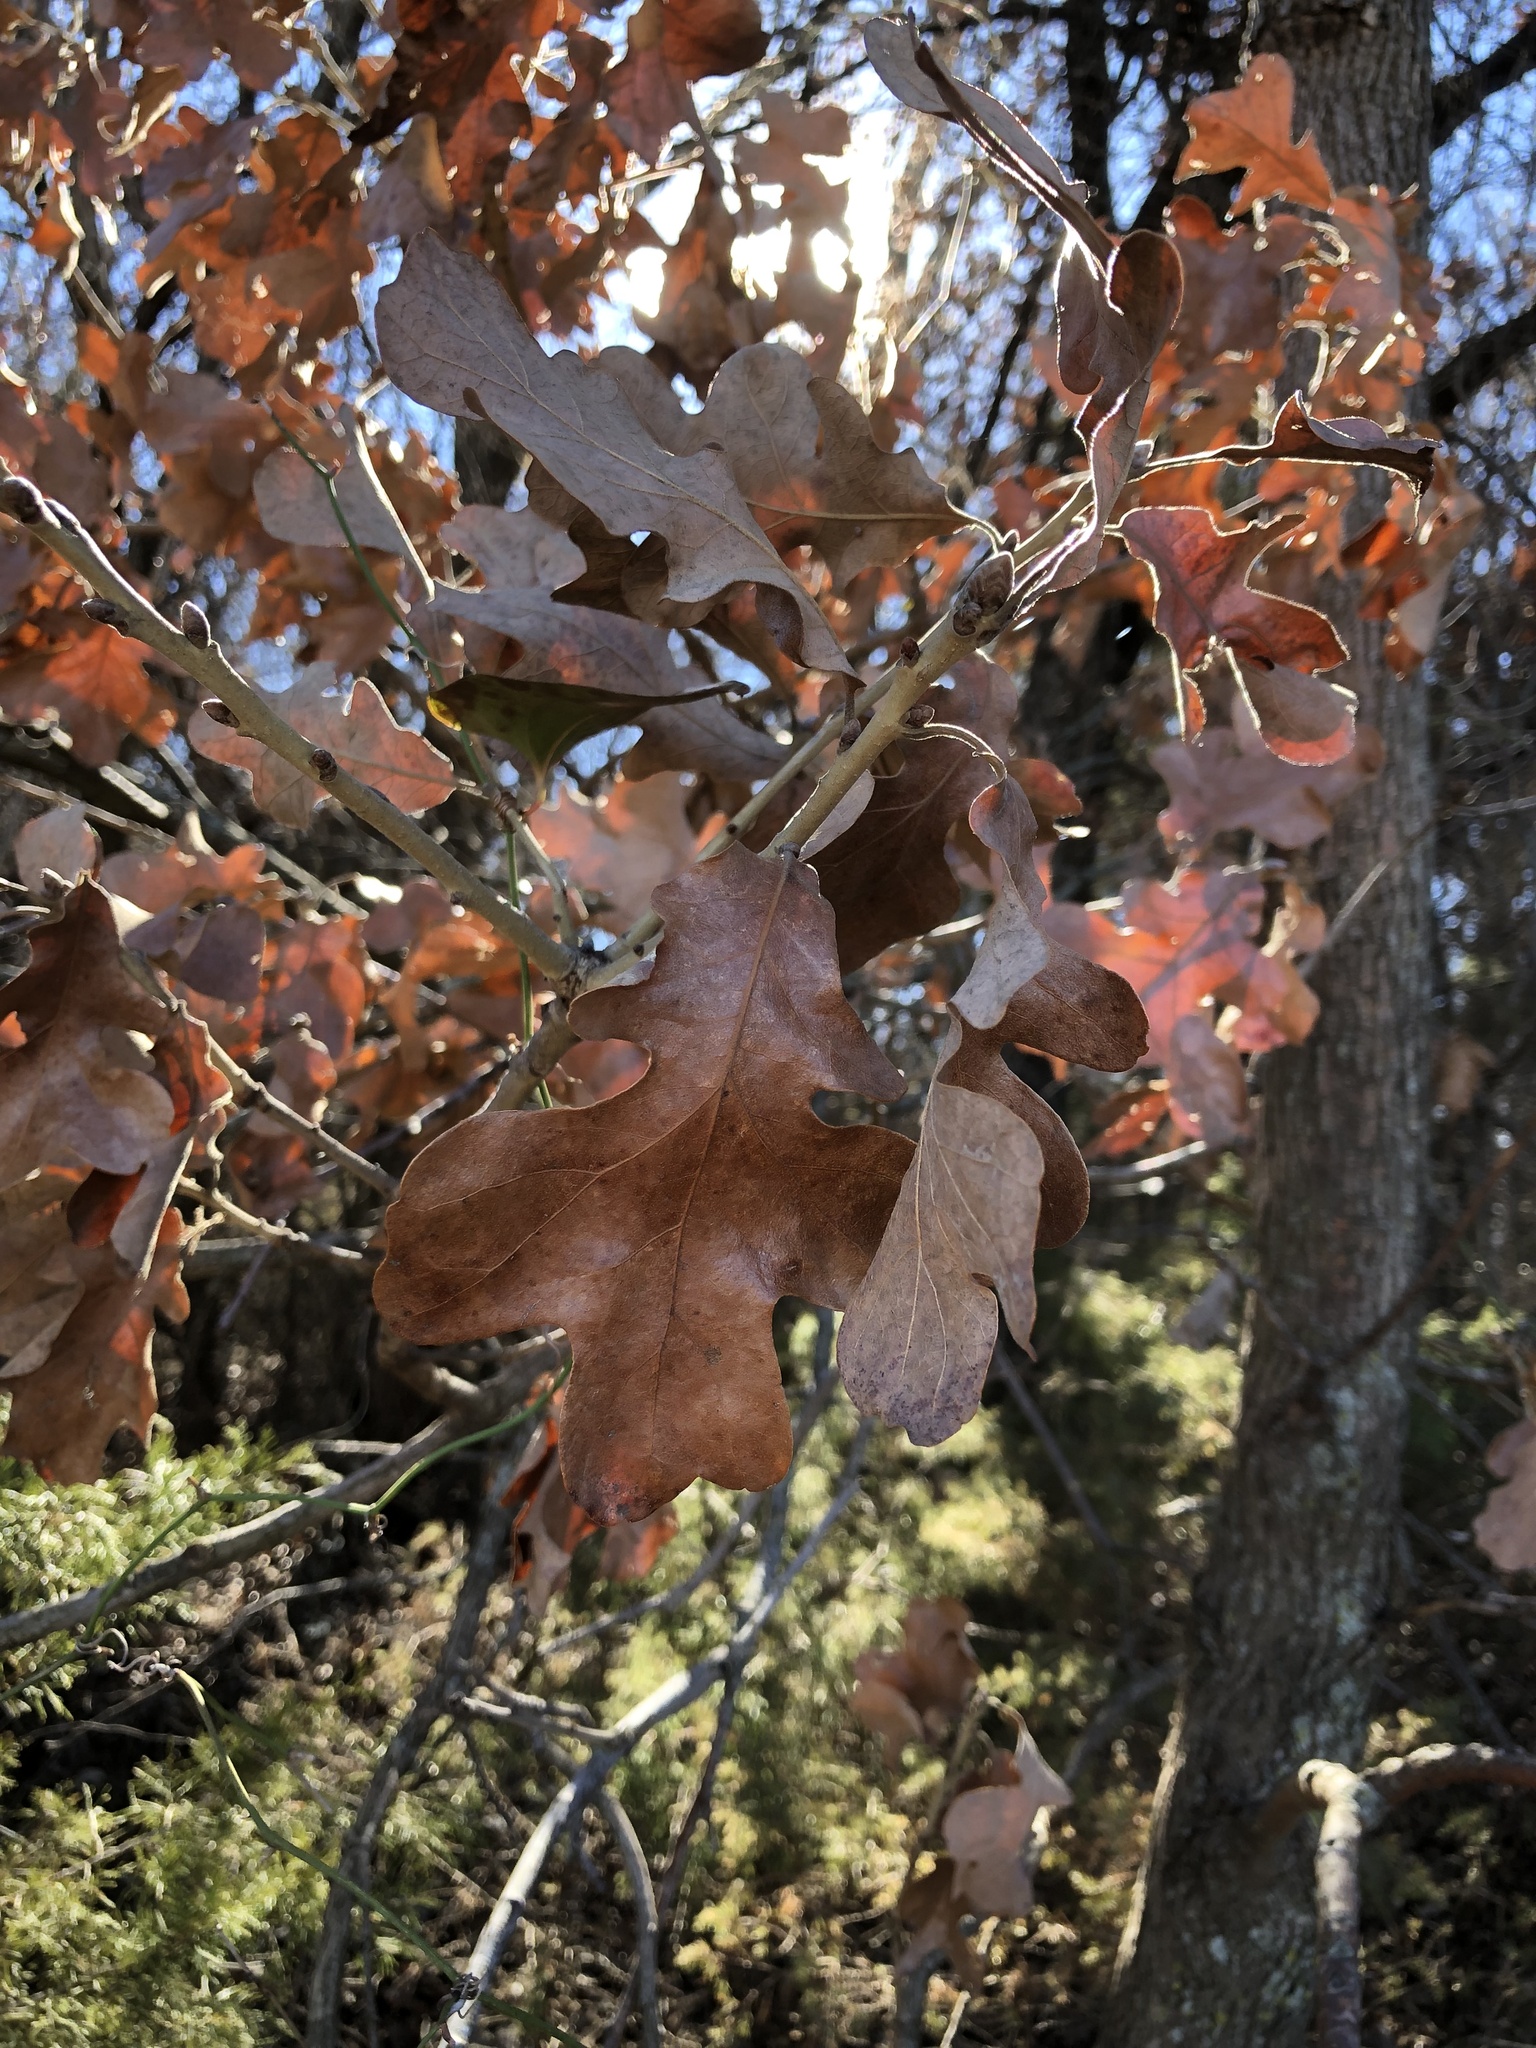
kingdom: Plantae
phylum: Tracheophyta
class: Magnoliopsida
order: Fagales
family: Fagaceae
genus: Quercus
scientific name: Quercus stellata
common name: Post oak
